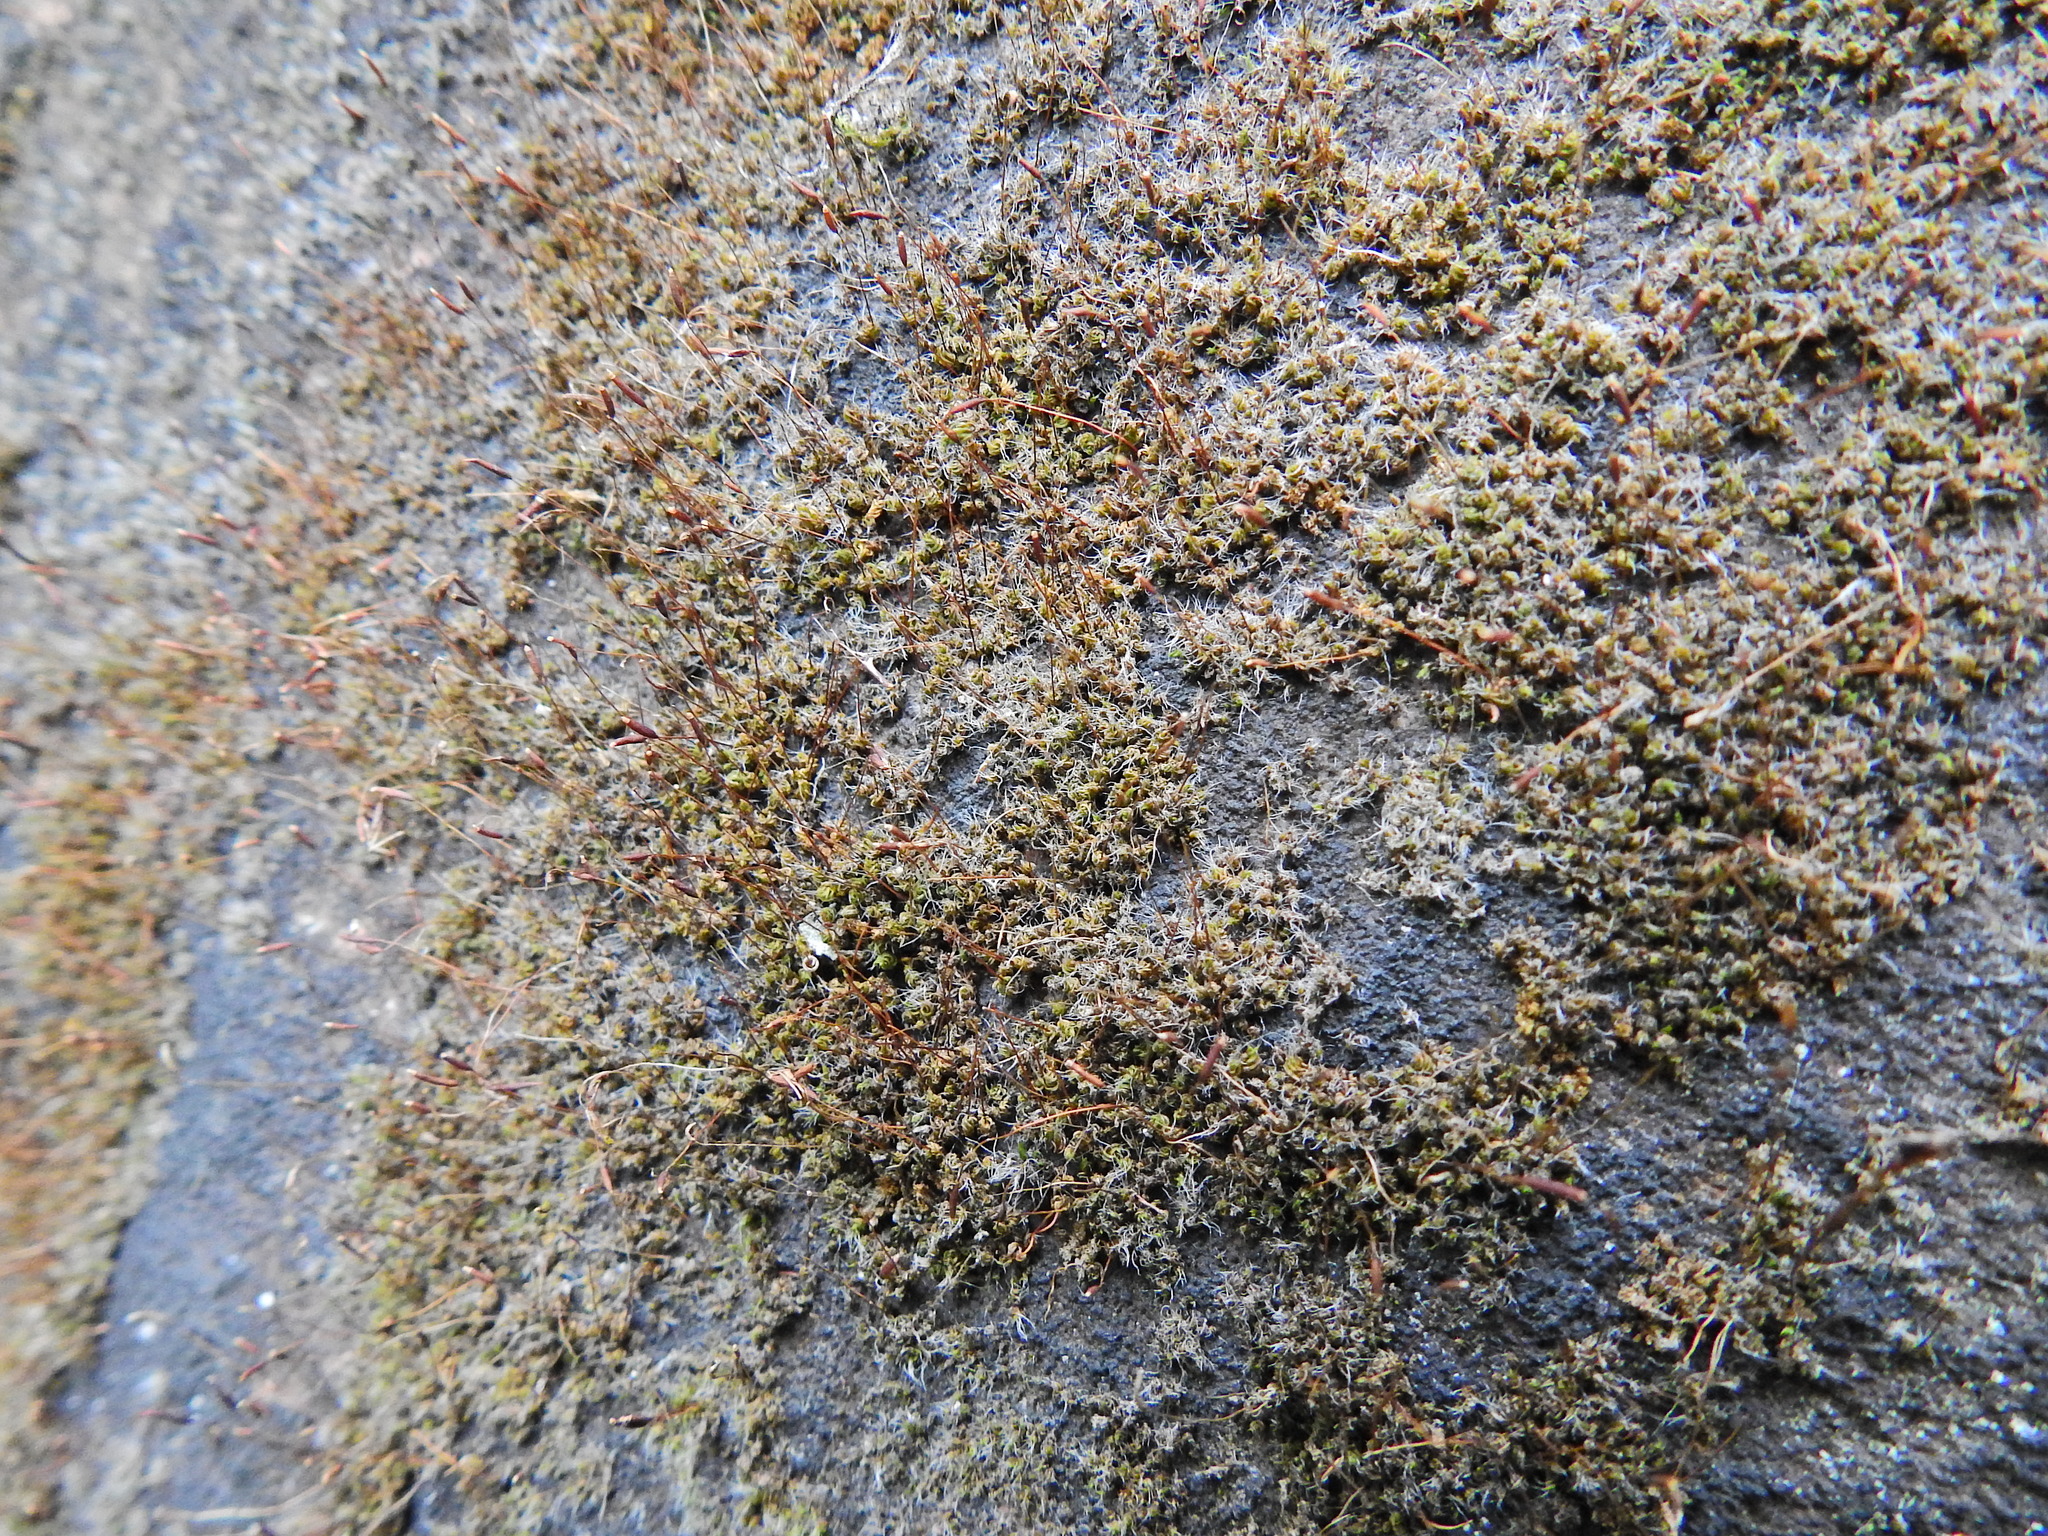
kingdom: Plantae
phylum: Bryophyta
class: Bryopsida
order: Pottiales
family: Pottiaceae
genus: Tortula
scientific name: Tortula muralis
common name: Wall screw-moss
